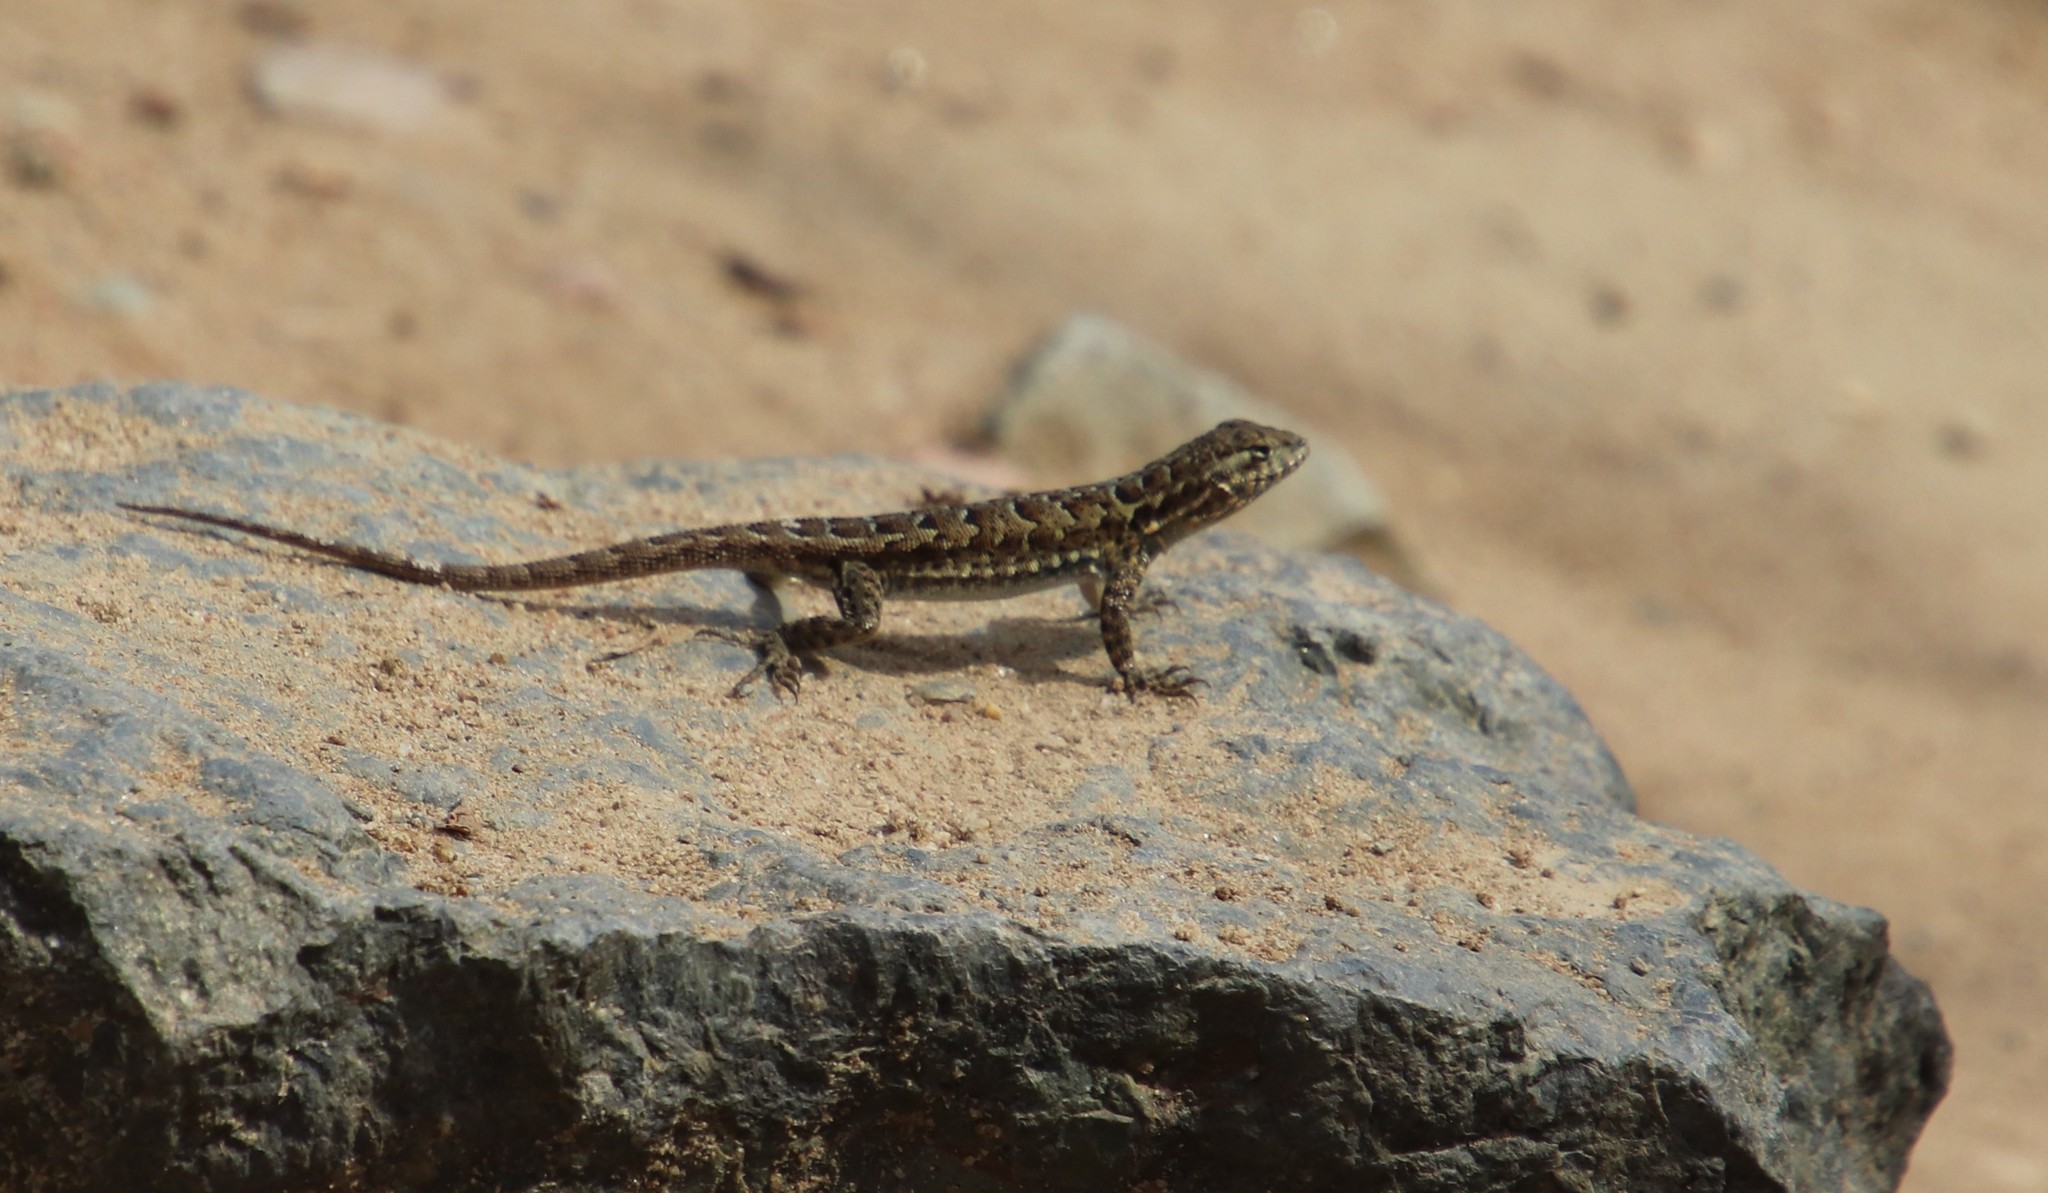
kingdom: Animalia
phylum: Chordata
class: Squamata
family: Phrynosomatidae
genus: Uta
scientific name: Uta stansburiana
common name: Side-blotched lizard
